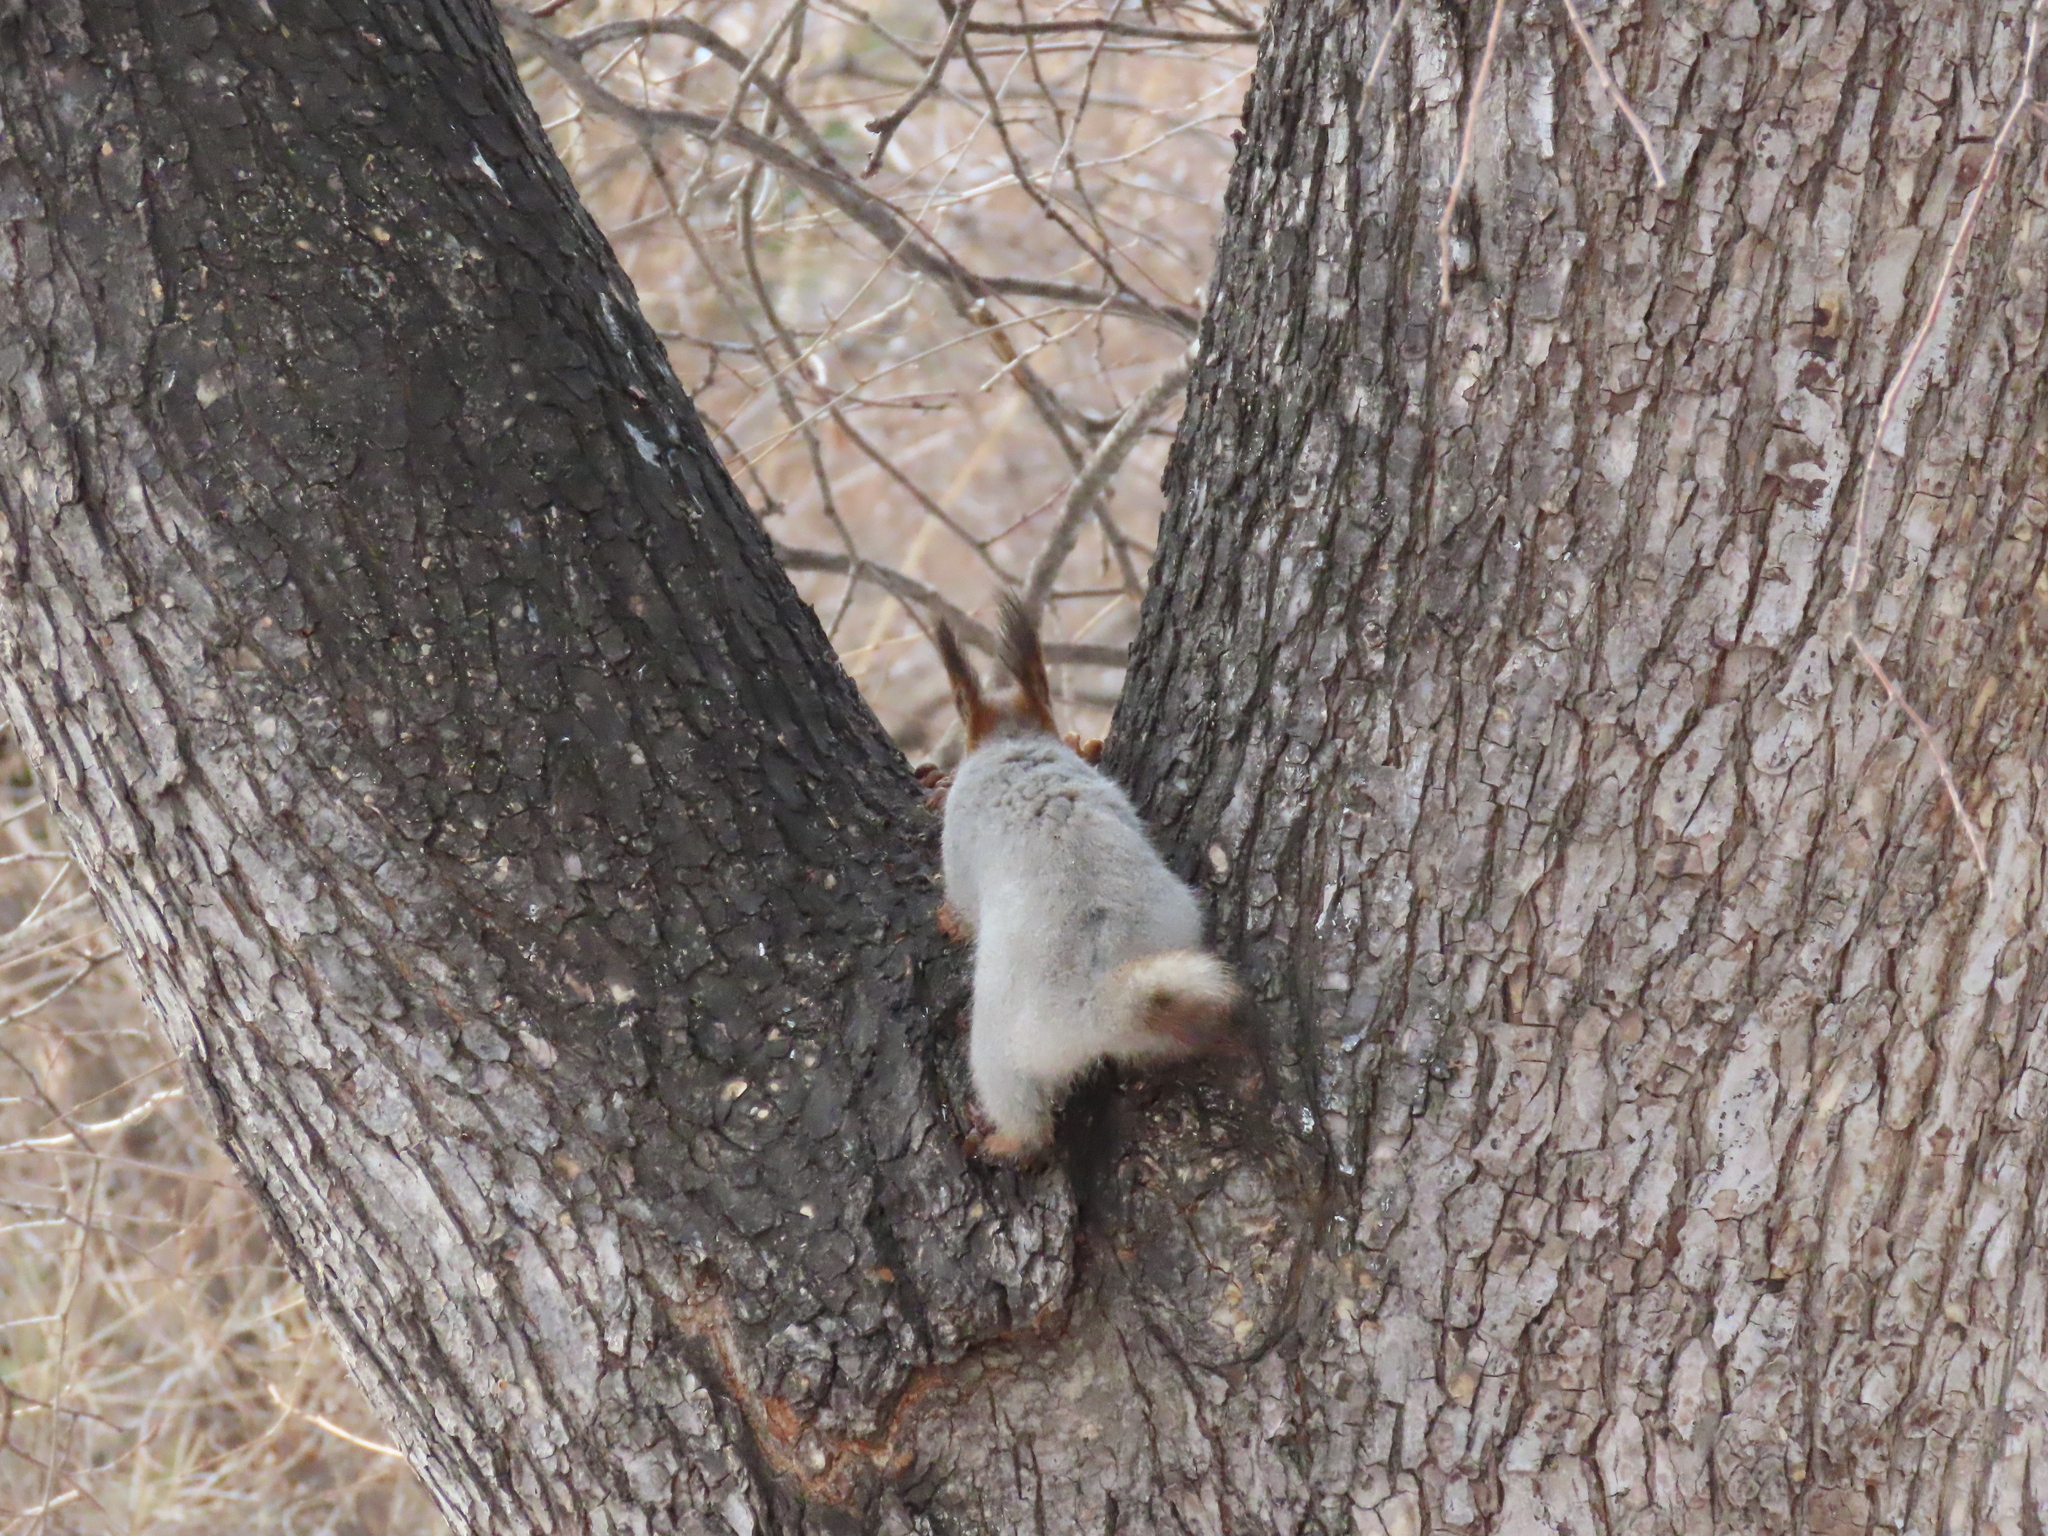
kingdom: Animalia
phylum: Chordata
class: Mammalia
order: Rodentia
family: Sciuridae
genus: Sciurus
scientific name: Sciurus vulgaris
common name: Eurasian red squirrel
